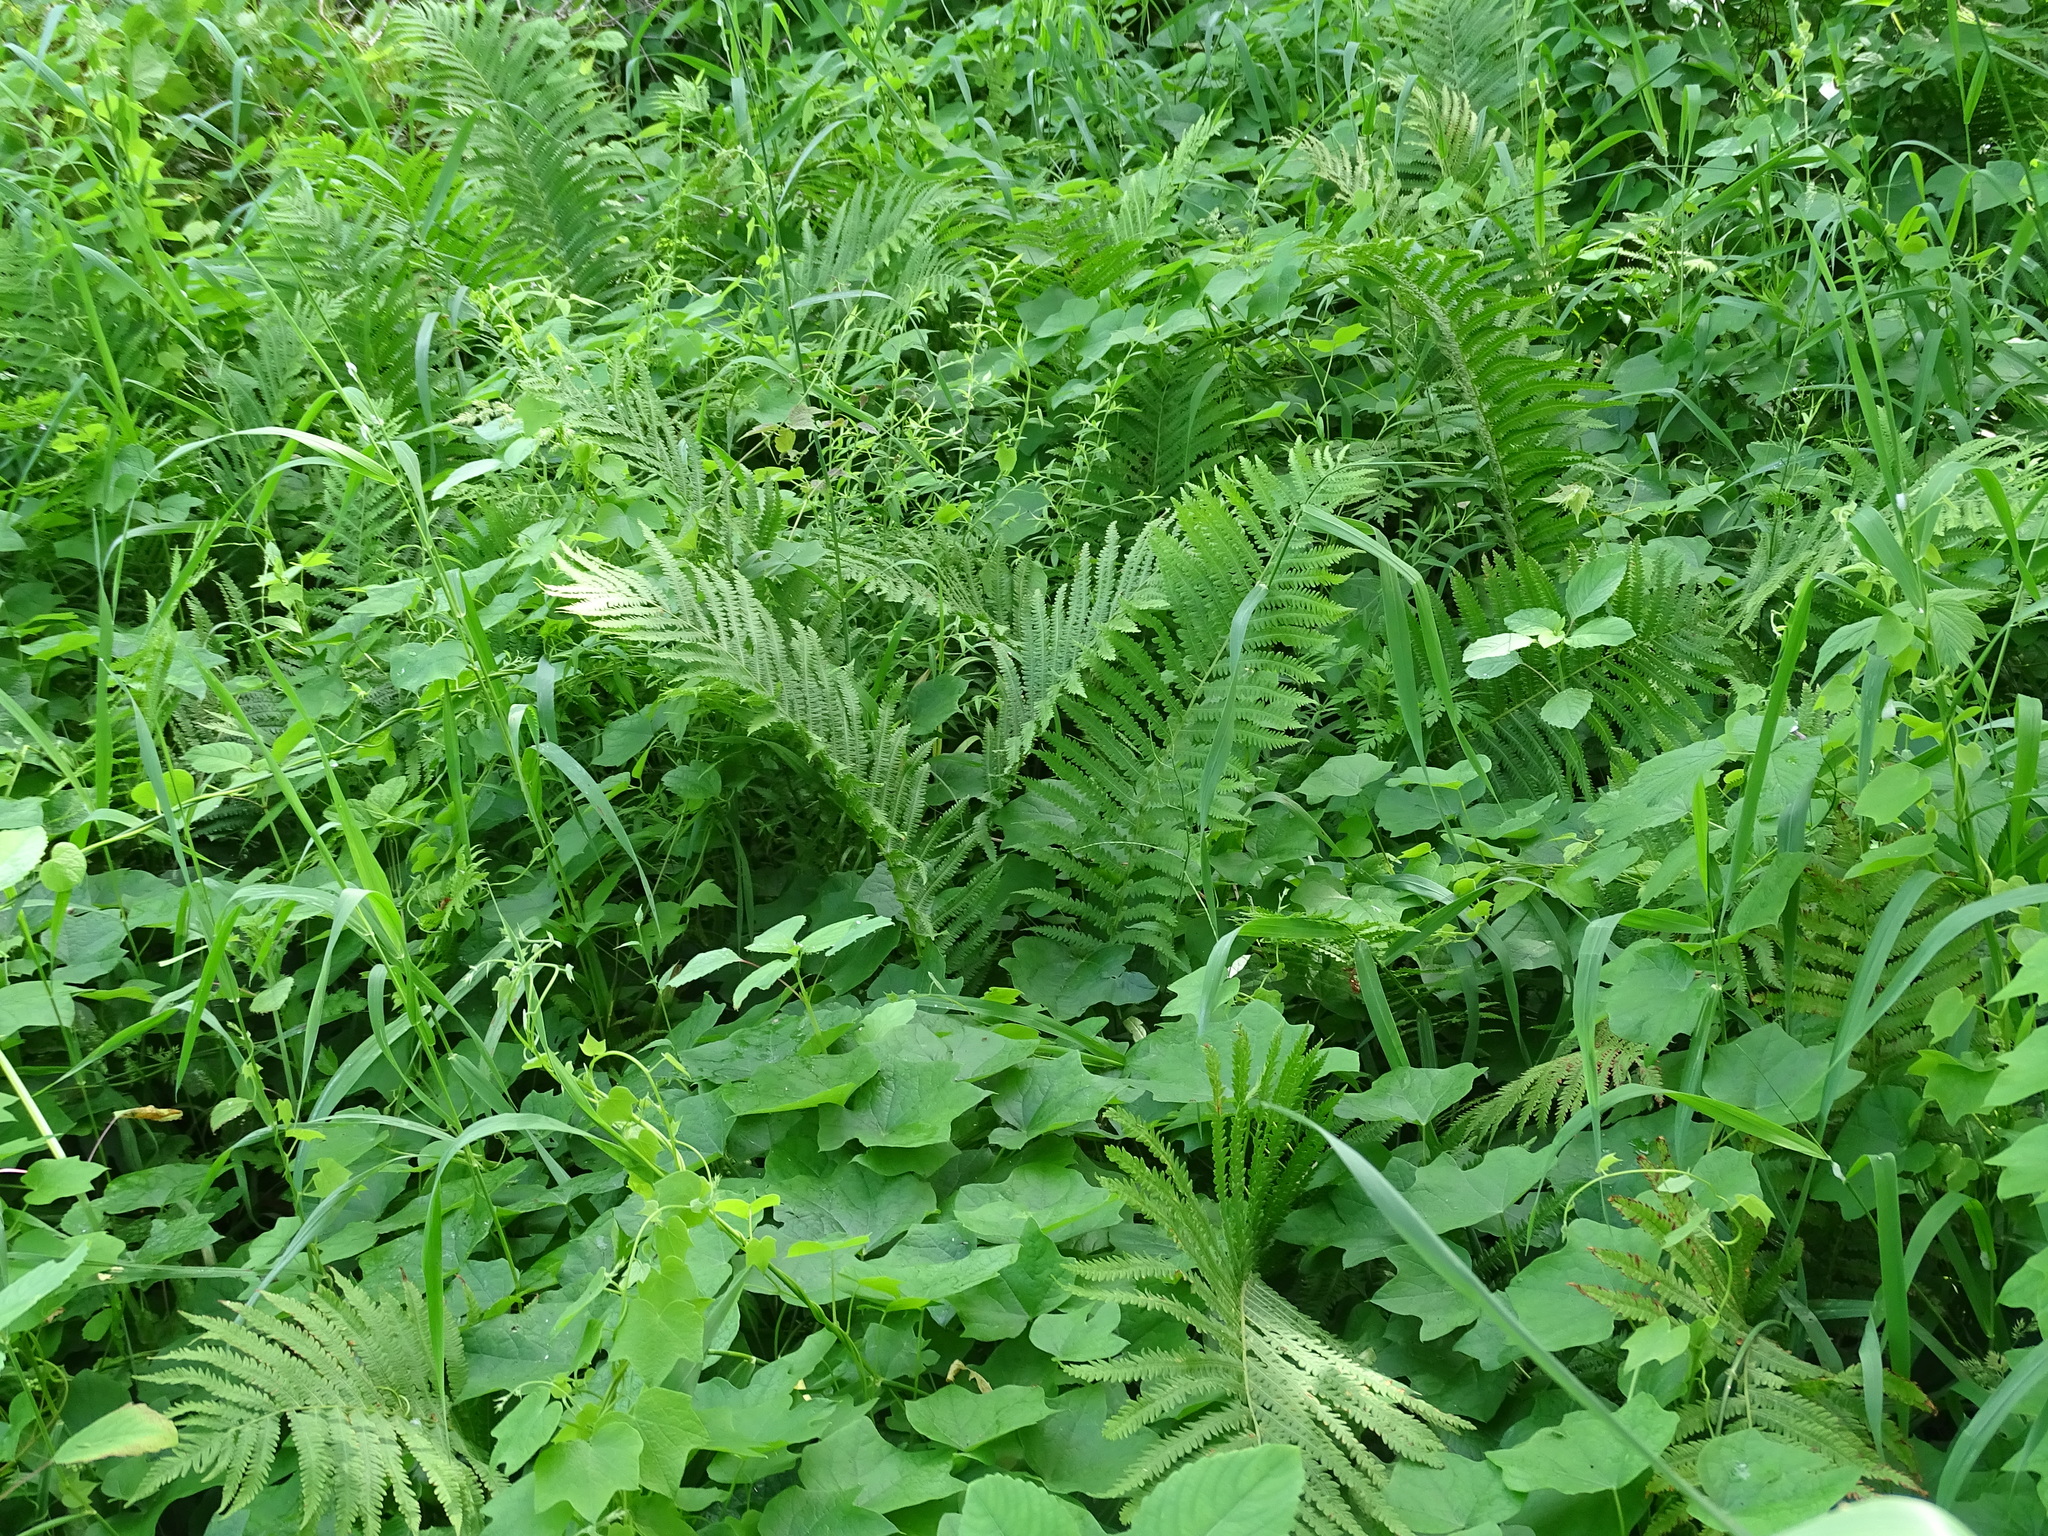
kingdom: Plantae
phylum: Tracheophyta
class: Polypodiopsida
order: Polypodiales
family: Onocleaceae
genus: Matteuccia
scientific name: Matteuccia struthiopteris
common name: Ostrich fern
